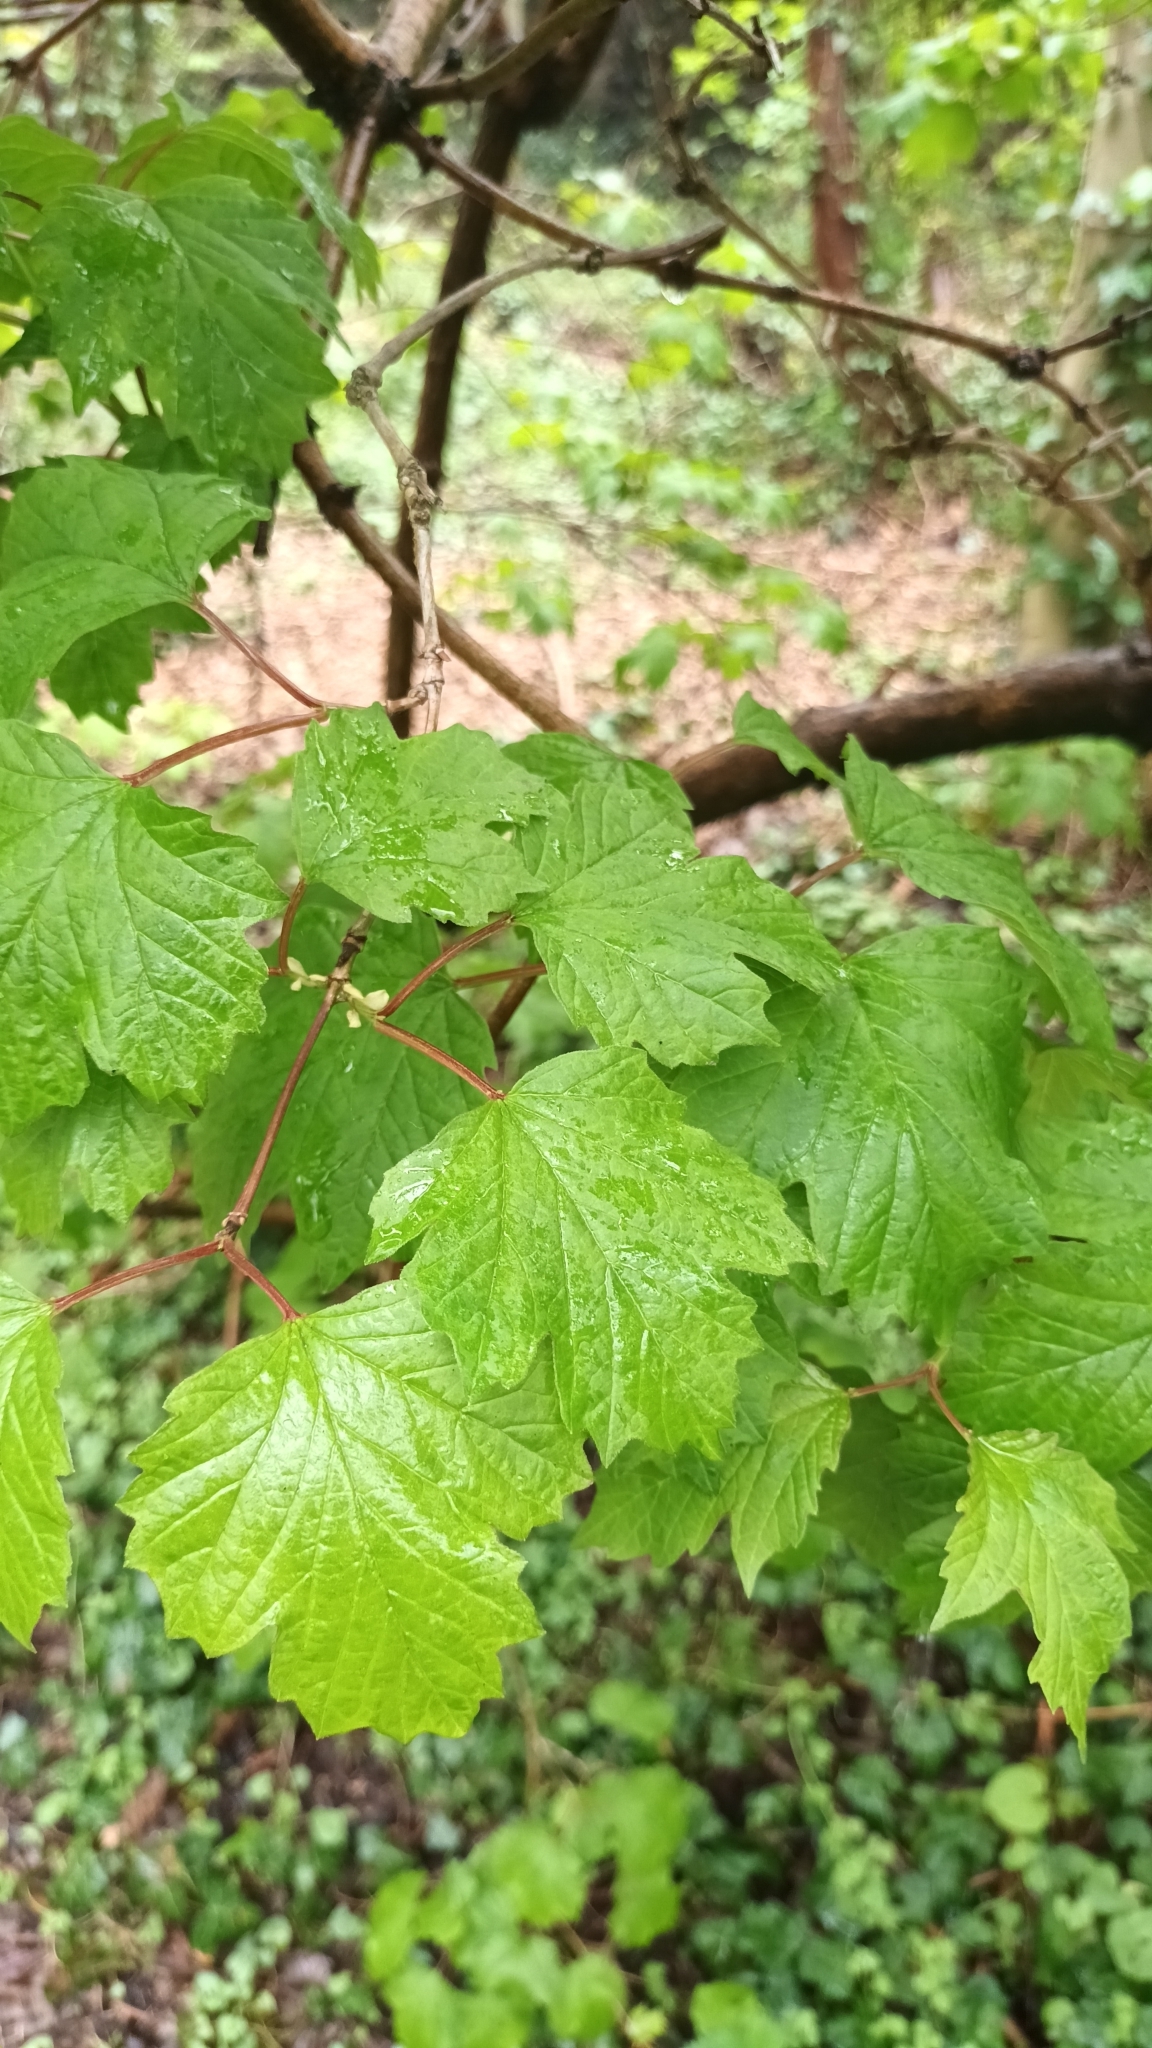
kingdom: Plantae
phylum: Tracheophyta
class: Magnoliopsida
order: Dipsacales
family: Viburnaceae
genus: Viburnum
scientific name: Viburnum opulus
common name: Guelder-rose
